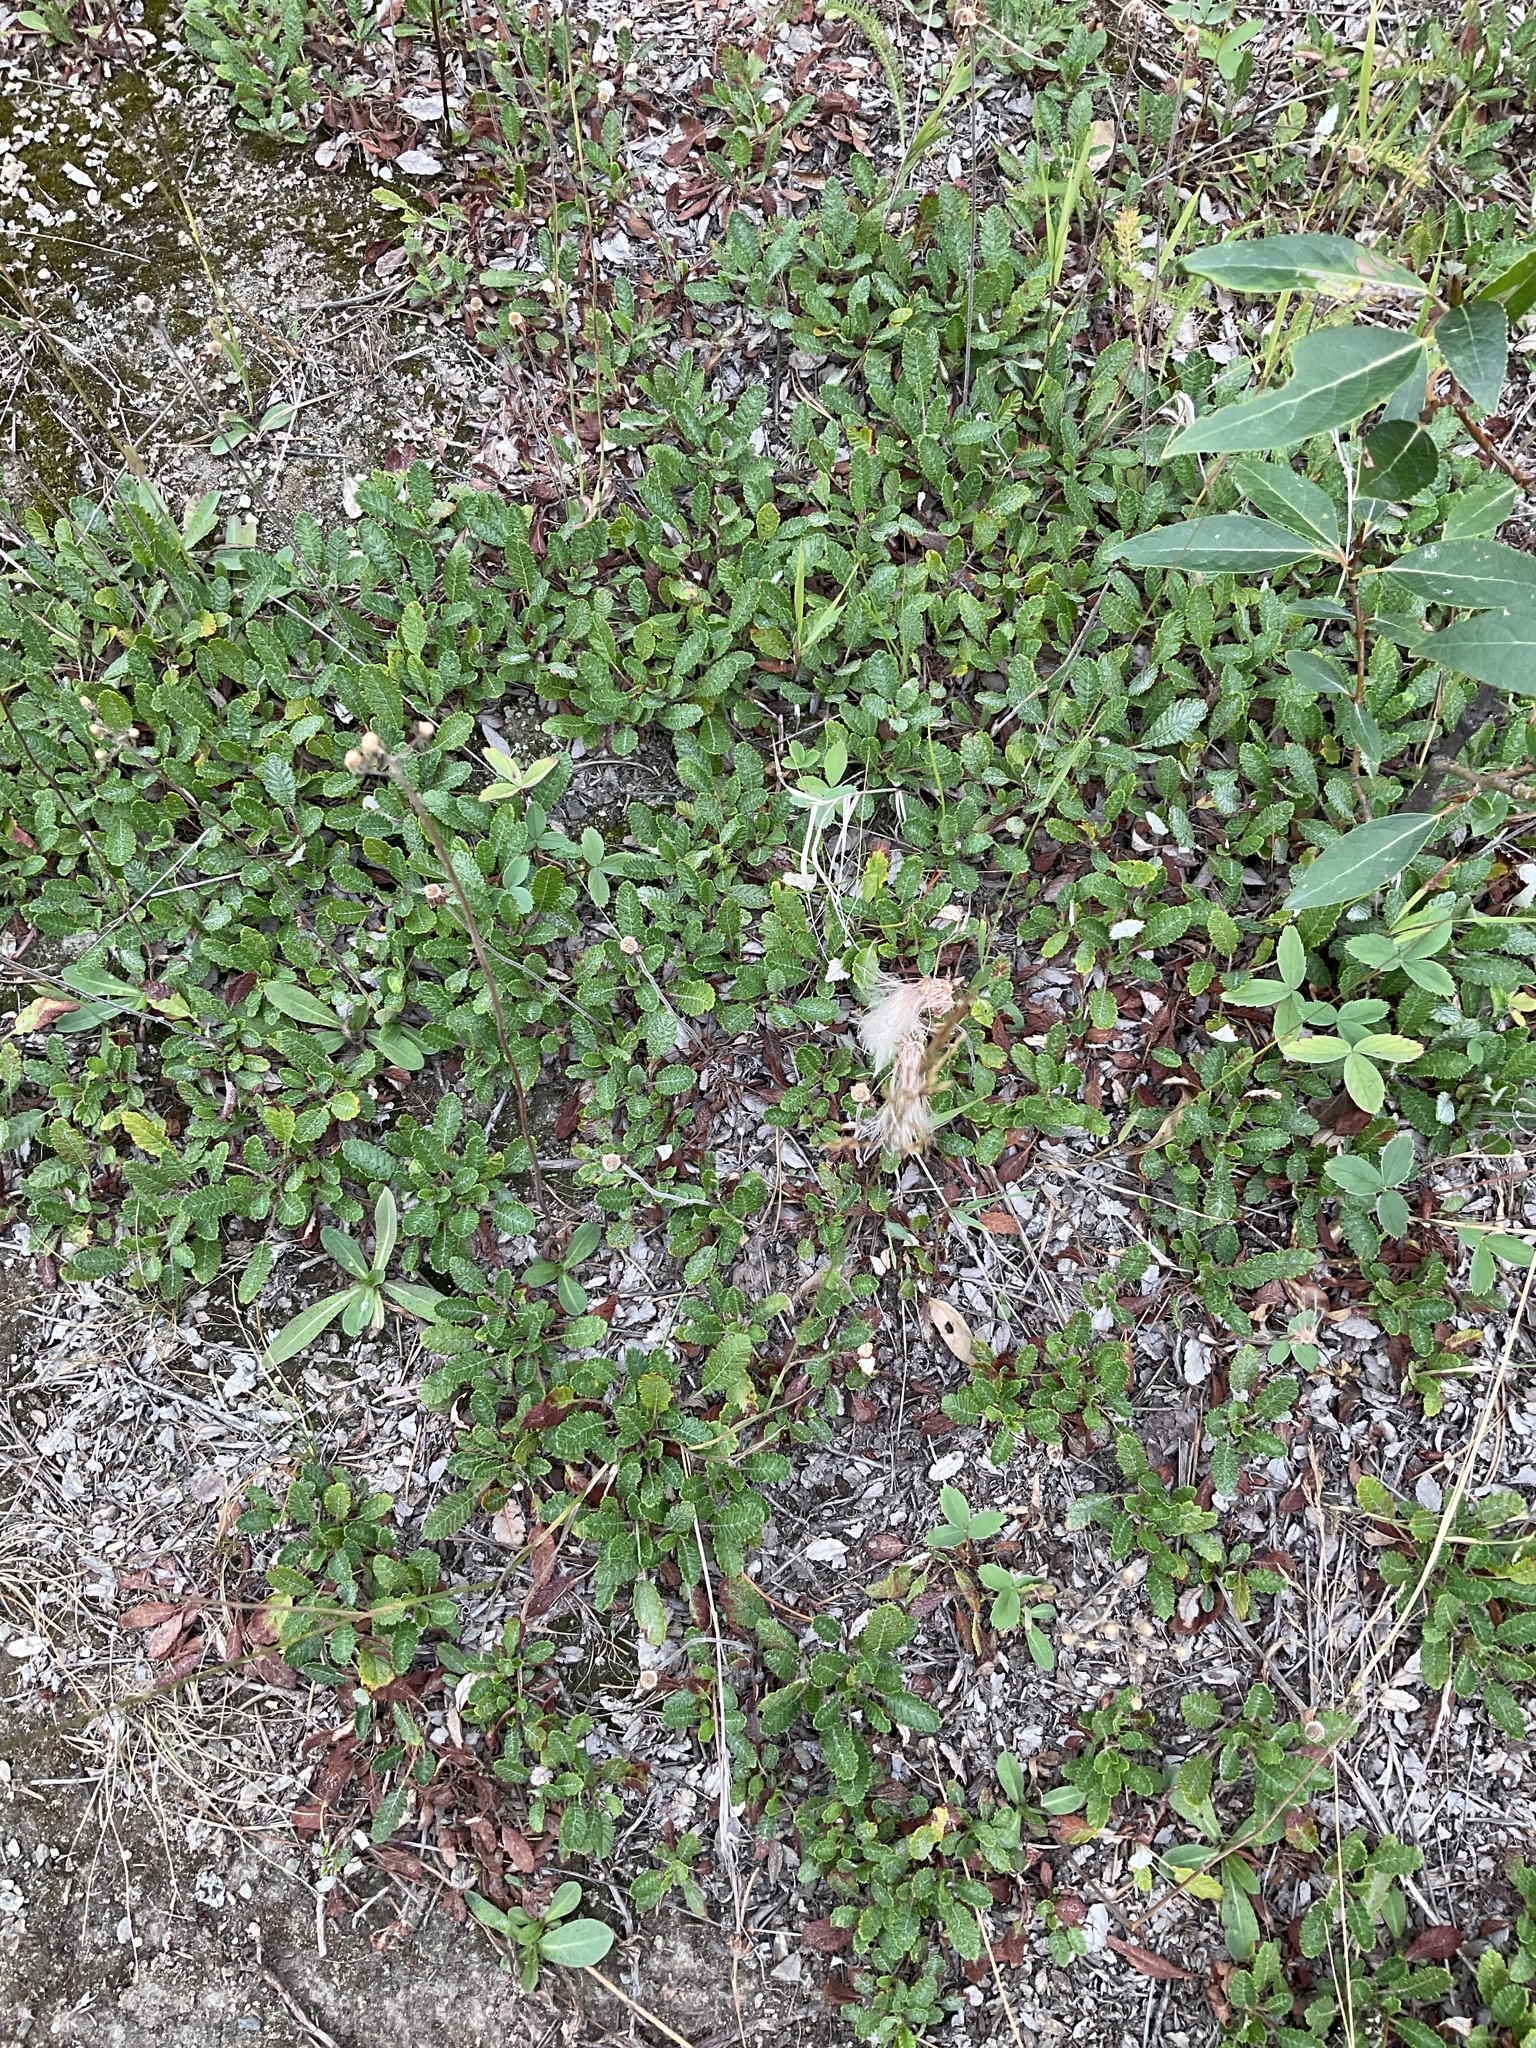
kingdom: Plantae
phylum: Tracheophyta
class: Magnoliopsida
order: Rosales
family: Rosaceae
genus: Dryas
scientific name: Dryas drummondii
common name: Drummond's dryad
